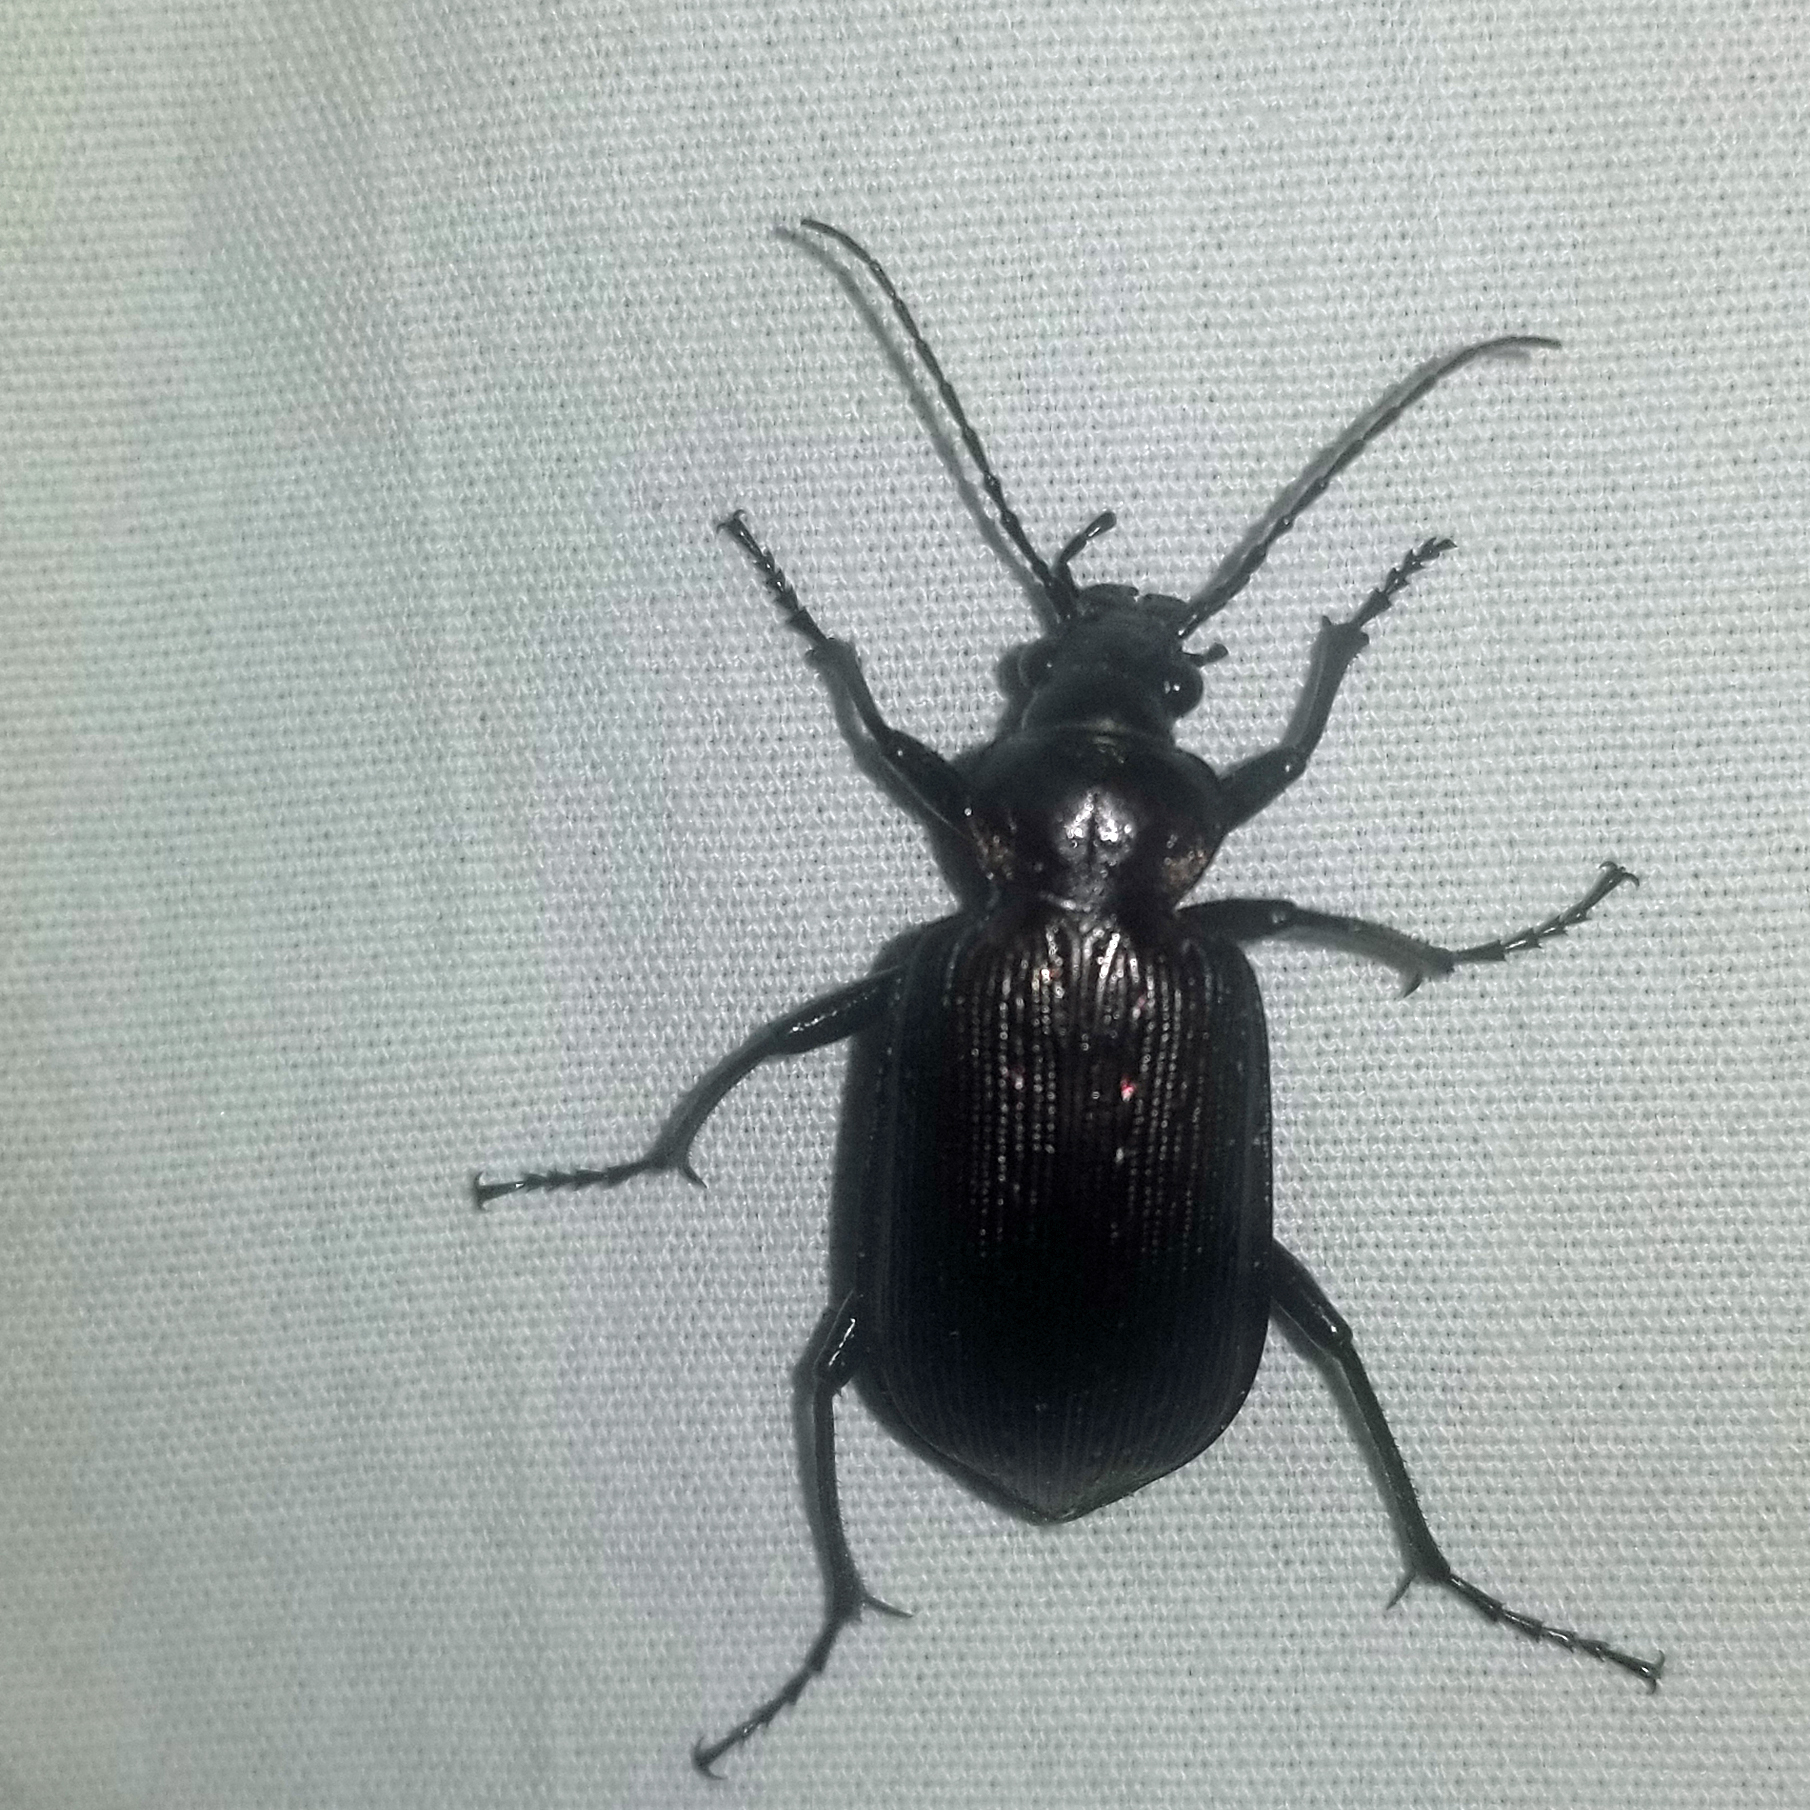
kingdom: Animalia
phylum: Arthropoda
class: Insecta
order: Coleoptera
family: Carabidae
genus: Calosoma
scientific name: Calosoma sayi
